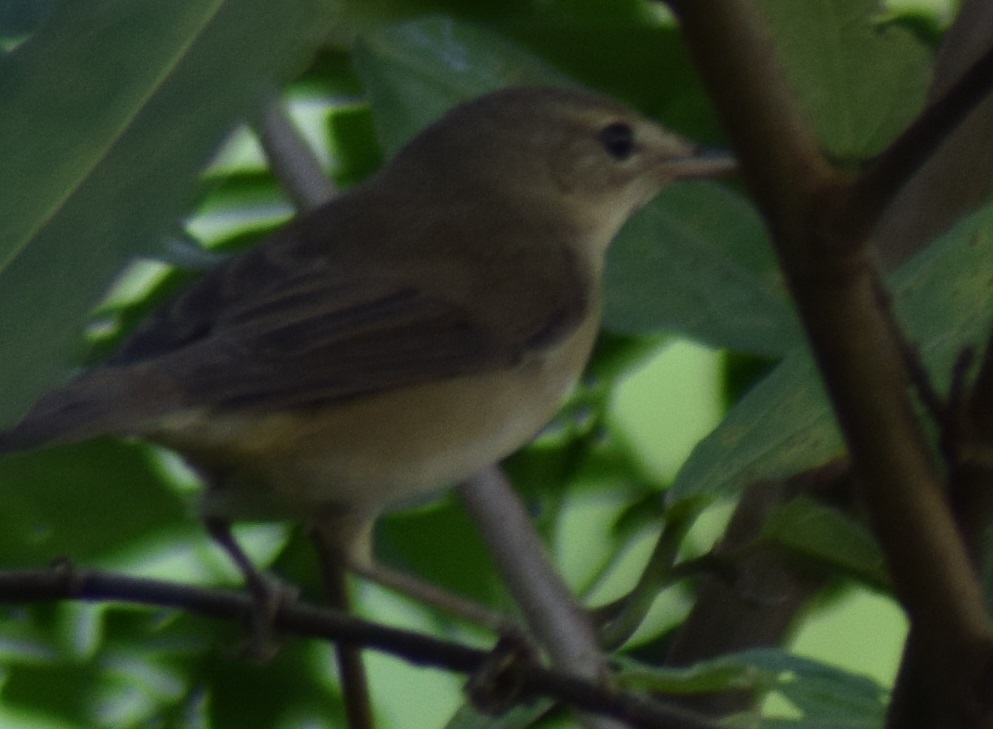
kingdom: Animalia
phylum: Chordata
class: Aves
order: Passeriformes
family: Acrocephalidae
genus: Acrocephalus
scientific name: Acrocephalus dumetorum
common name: Blyth's reed warbler
